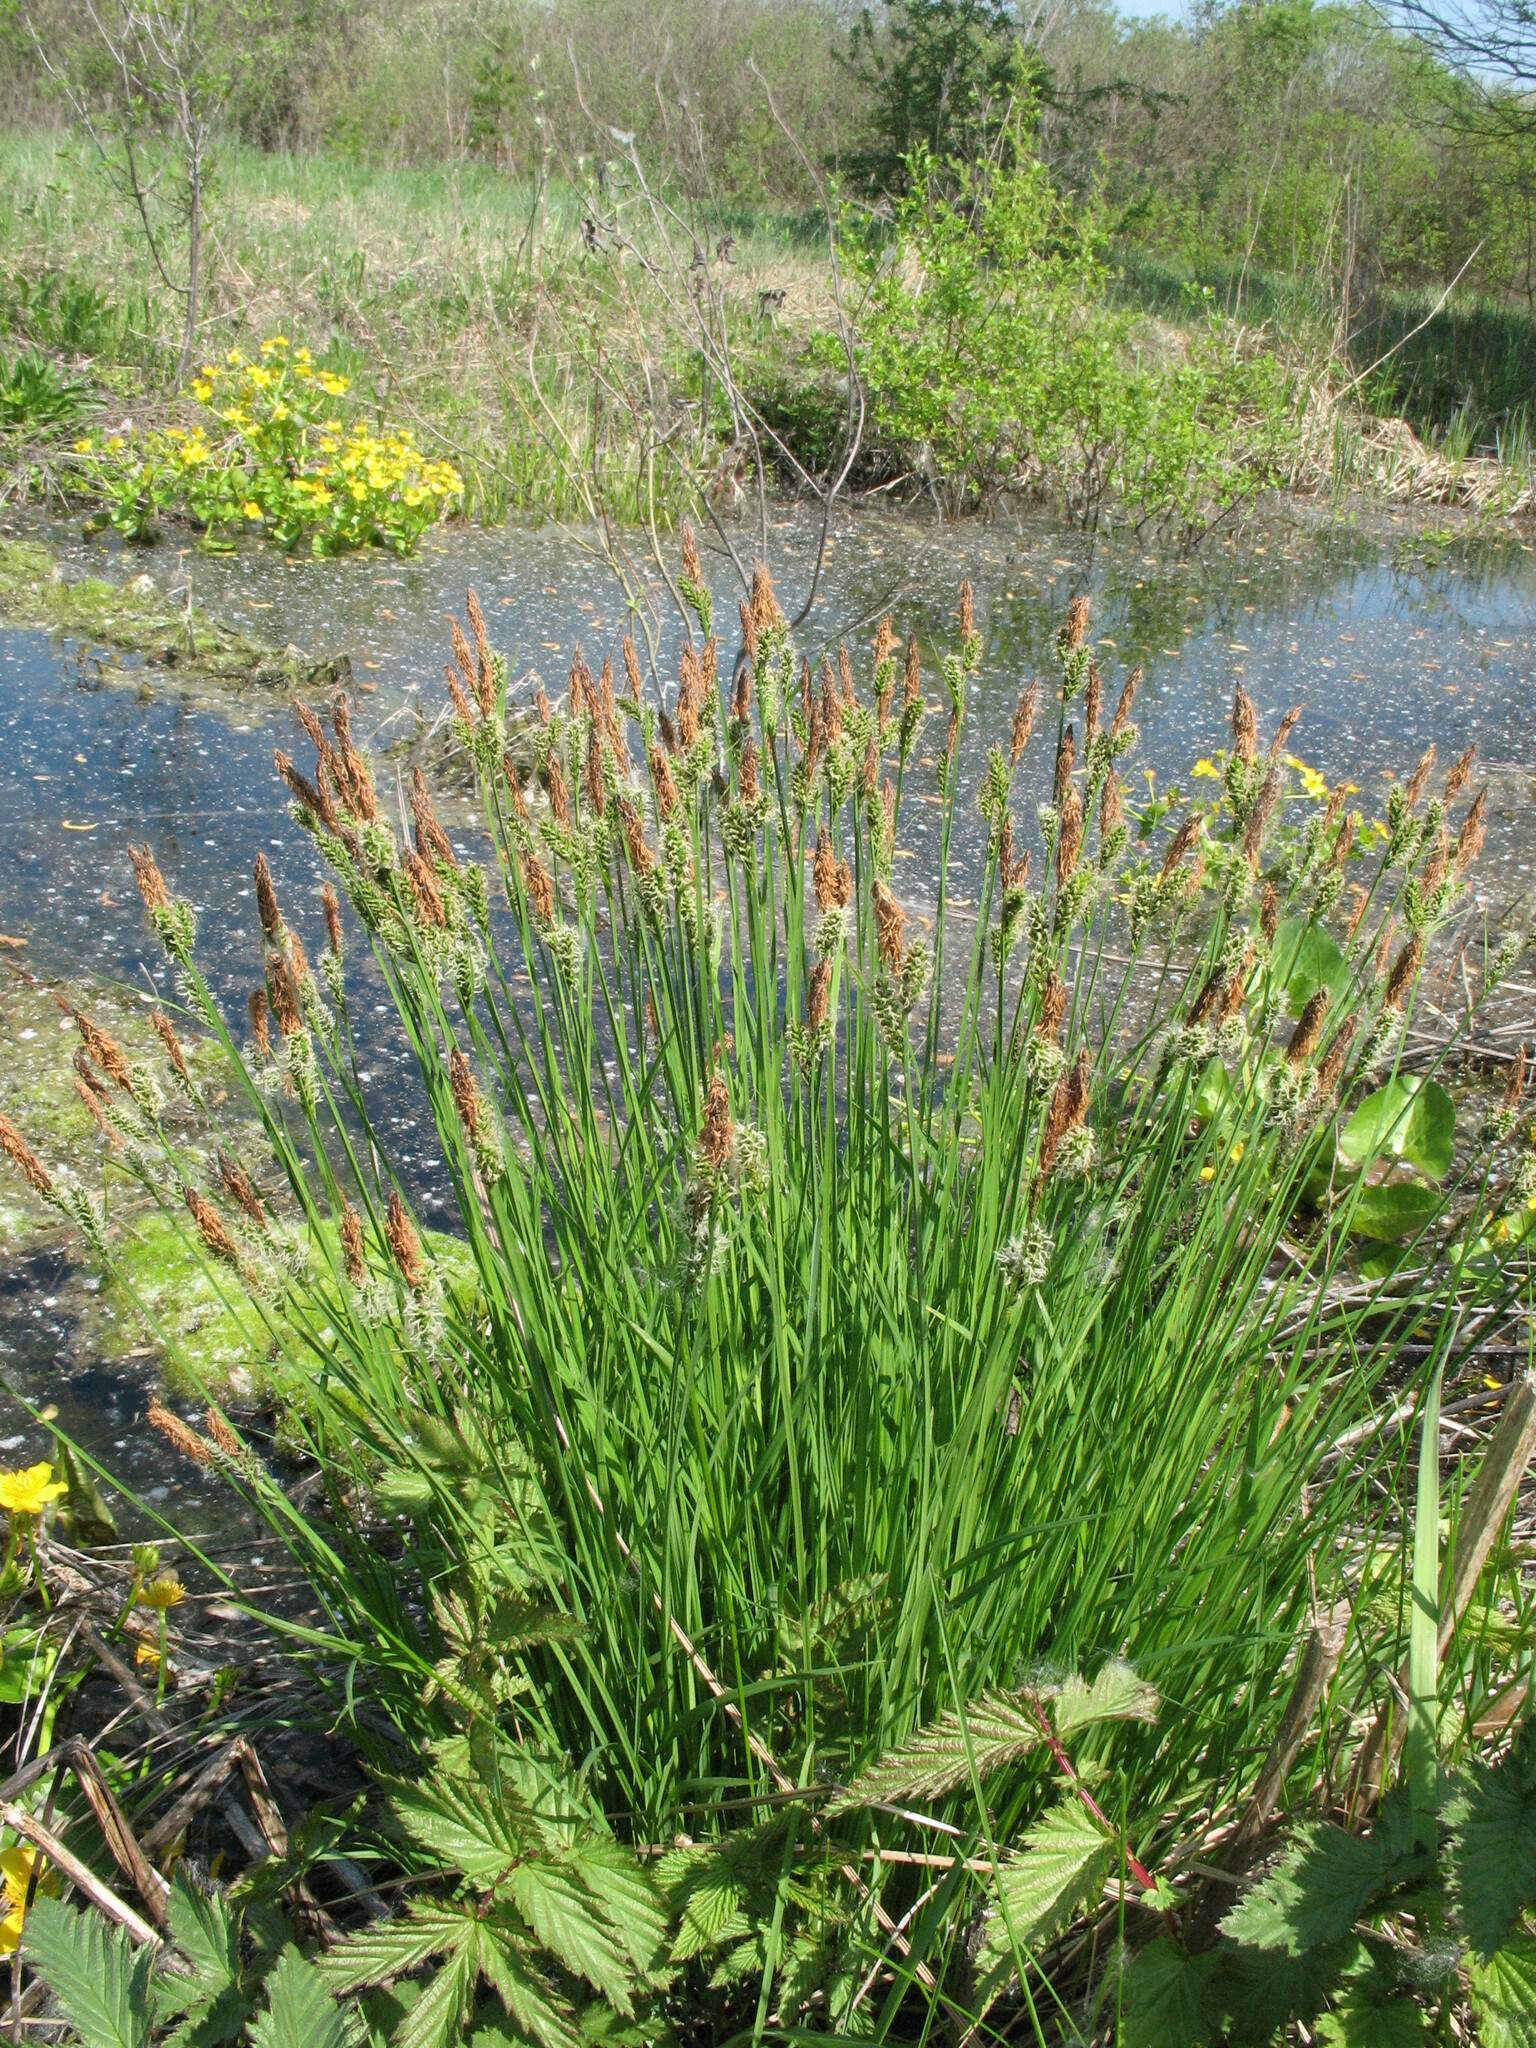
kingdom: Plantae
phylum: Tracheophyta
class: Liliopsida
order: Poales
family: Cyperaceae
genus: Carex
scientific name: Carex cespitosa
